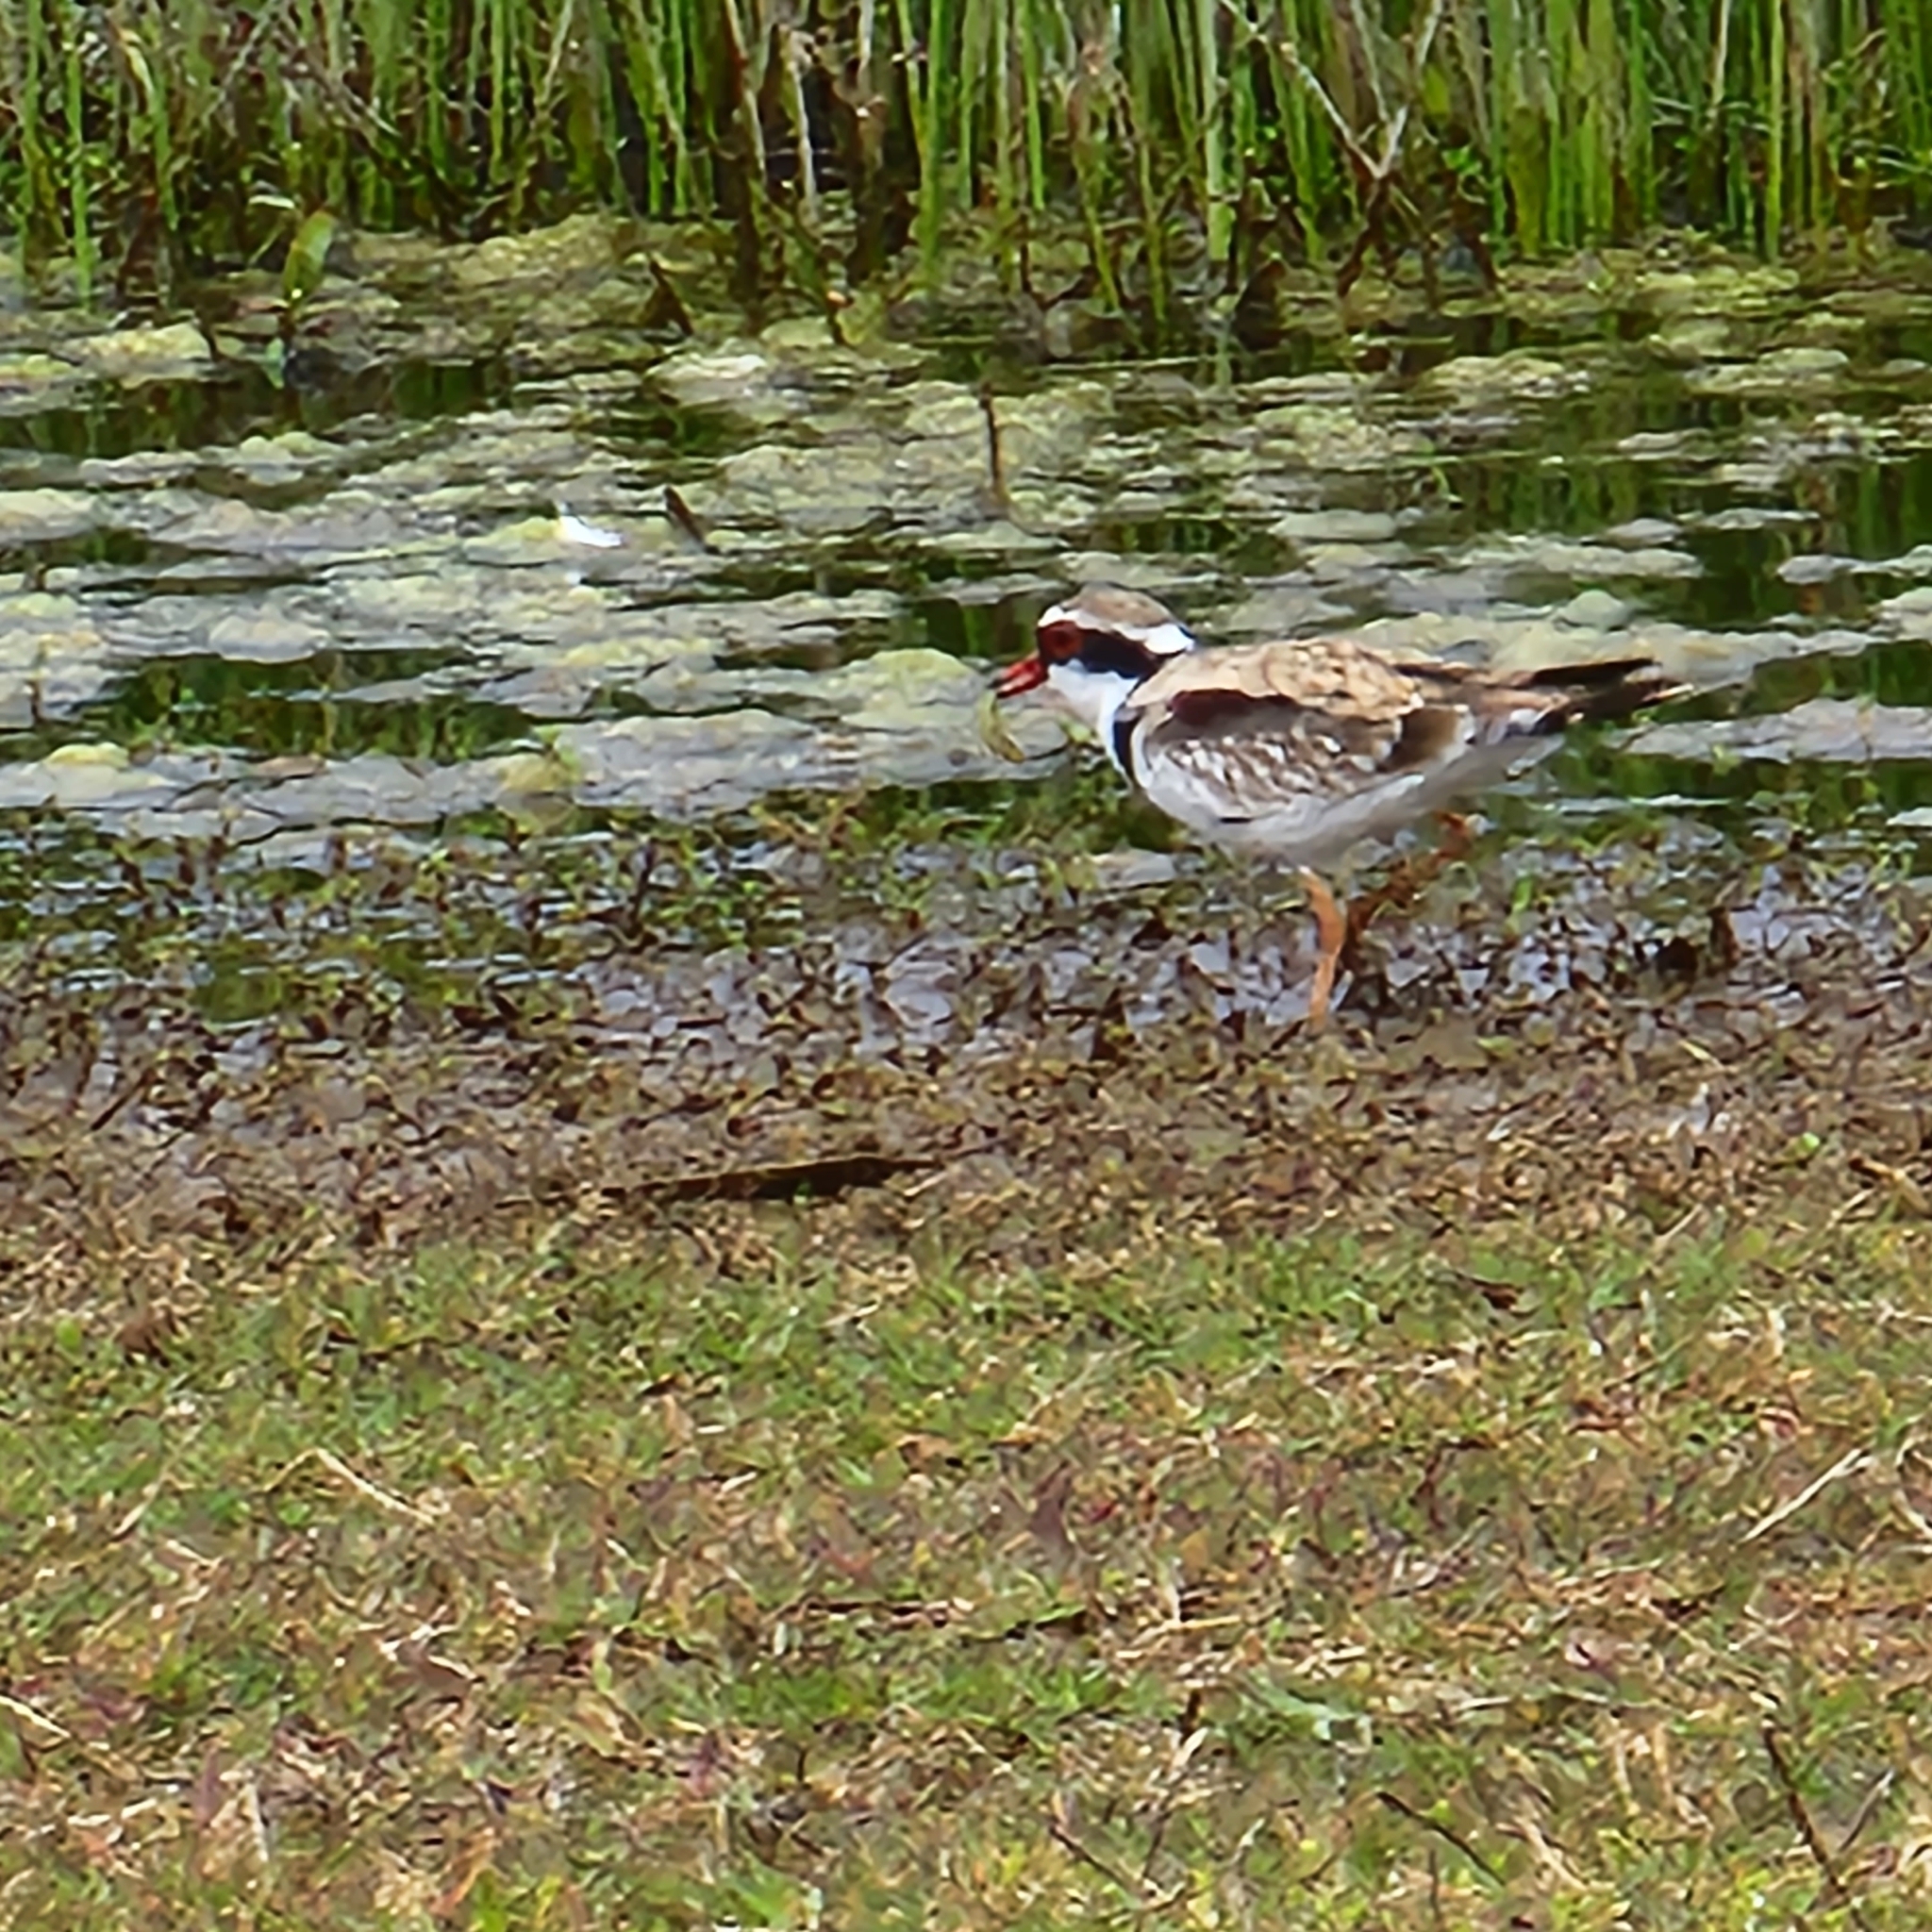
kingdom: Animalia
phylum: Chordata
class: Aves
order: Charadriiformes
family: Charadriidae
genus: Elseyornis
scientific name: Elseyornis melanops
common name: Black-fronted dotterel
